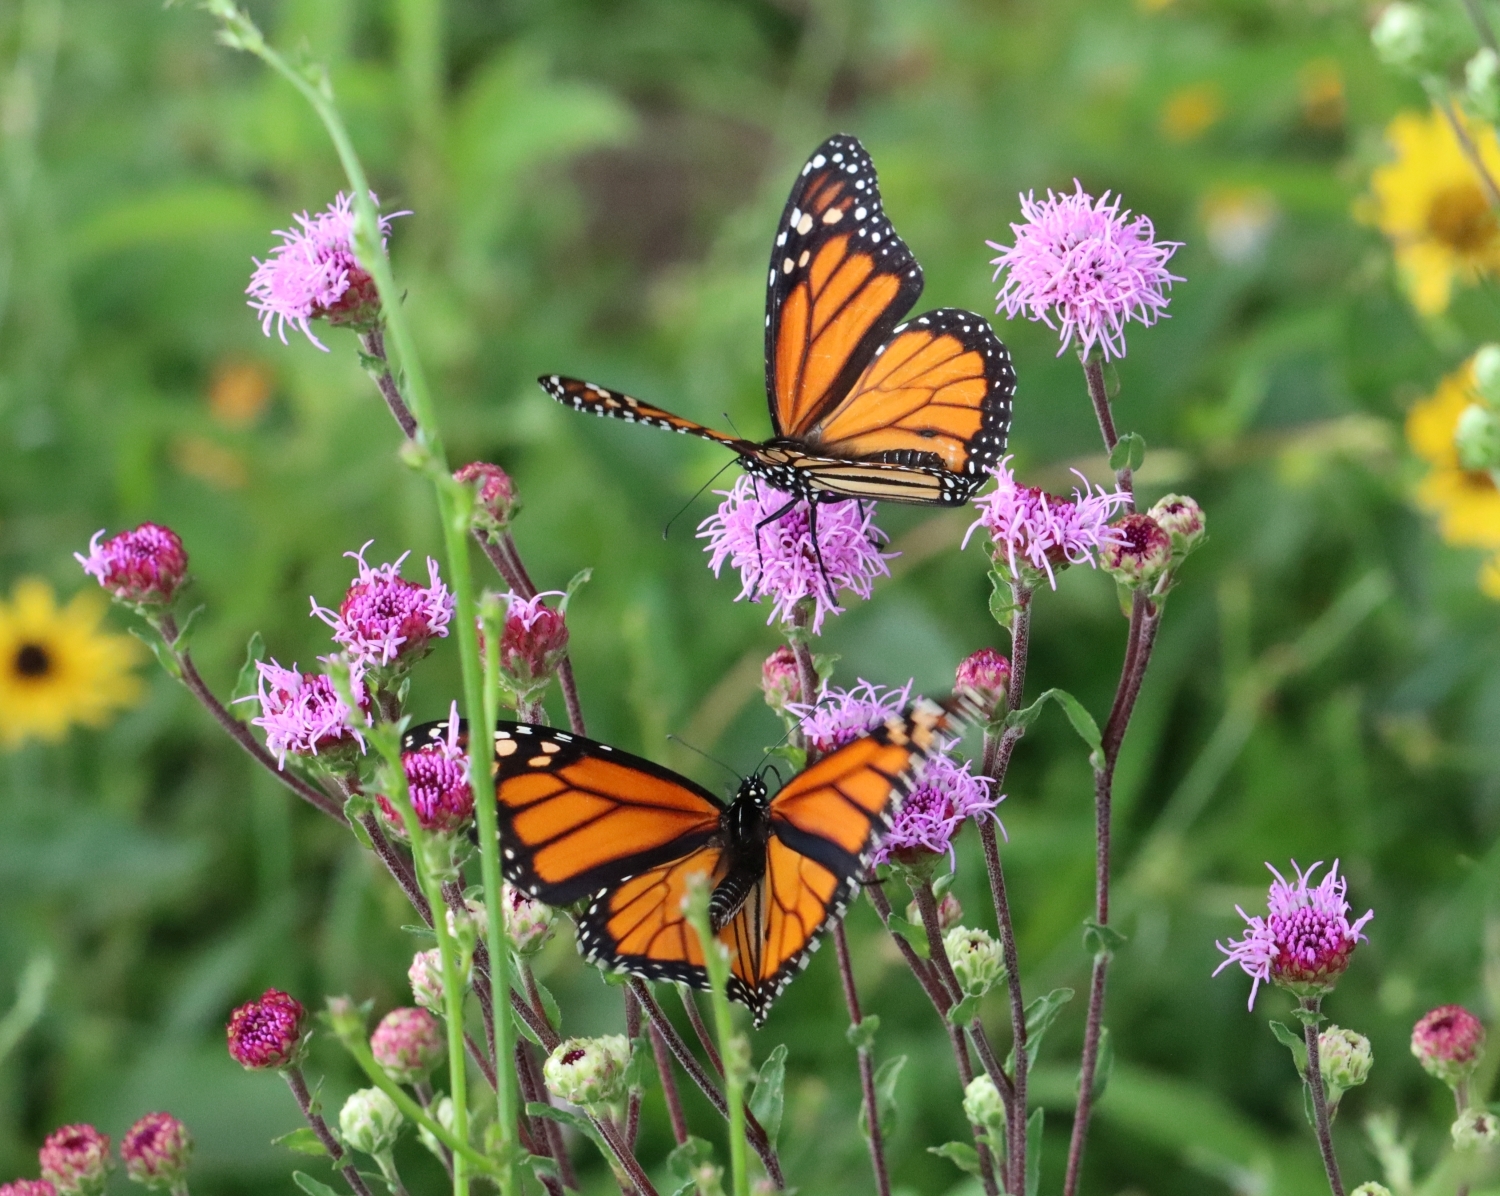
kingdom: Animalia
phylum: Arthropoda
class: Insecta
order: Lepidoptera
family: Nymphalidae
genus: Danaus
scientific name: Danaus plexippus
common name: Monarch
